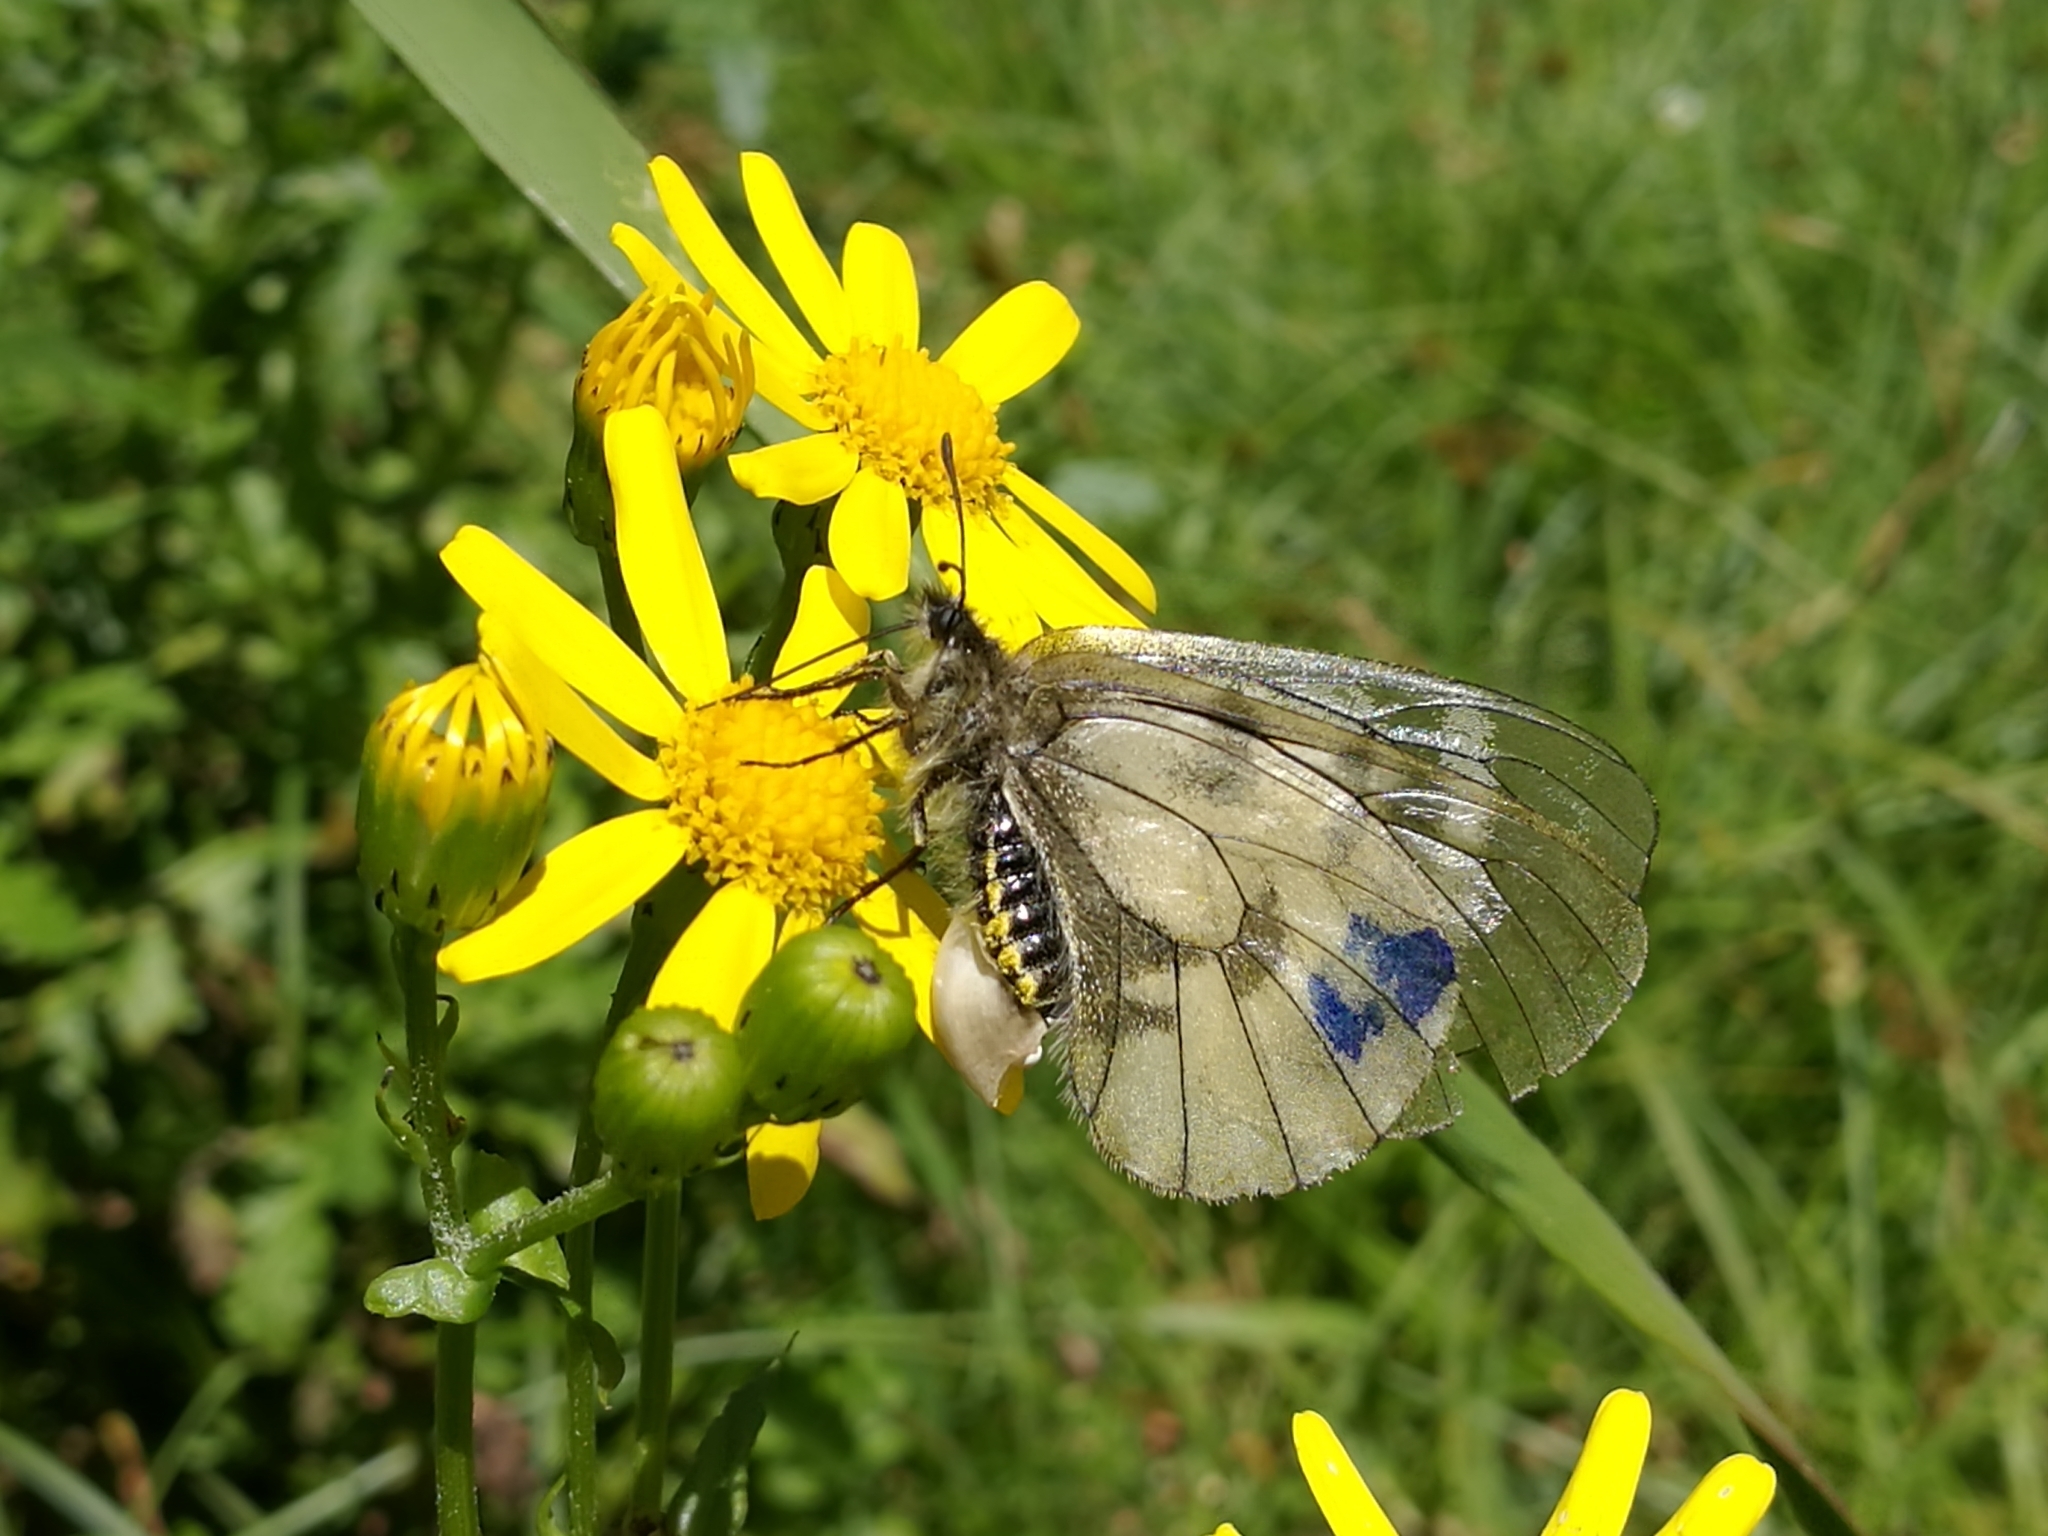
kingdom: Animalia
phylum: Arthropoda
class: Insecta
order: Lepidoptera
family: Papilionidae
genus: Parnassius
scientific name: Parnassius mnemosyne
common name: Clouded apollo
